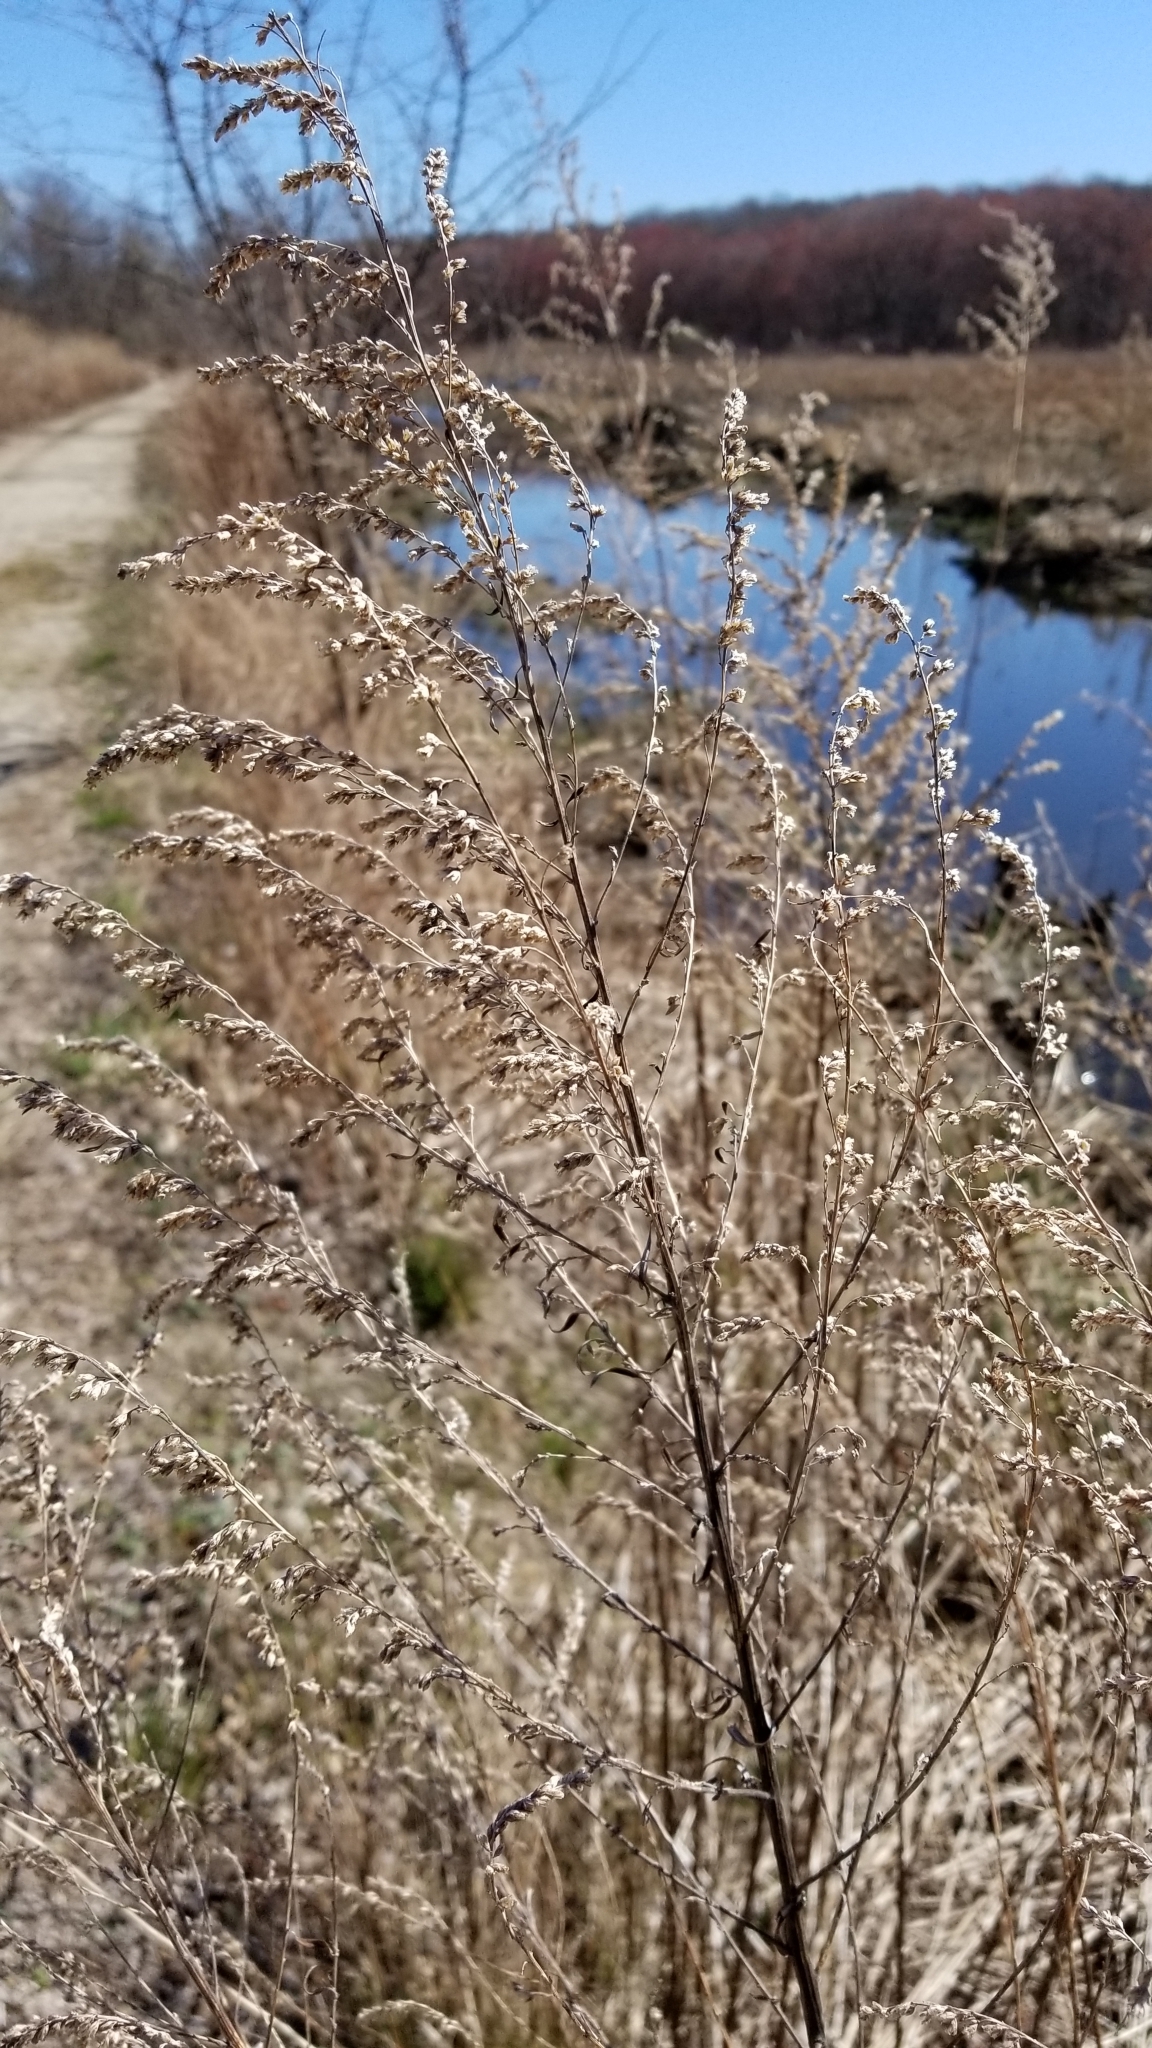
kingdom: Plantae
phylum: Tracheophyta
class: Magnoliopsida
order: Asterales
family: Asteraceae
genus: Artemisia
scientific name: Artemisia vulgaris
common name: Mugwort
